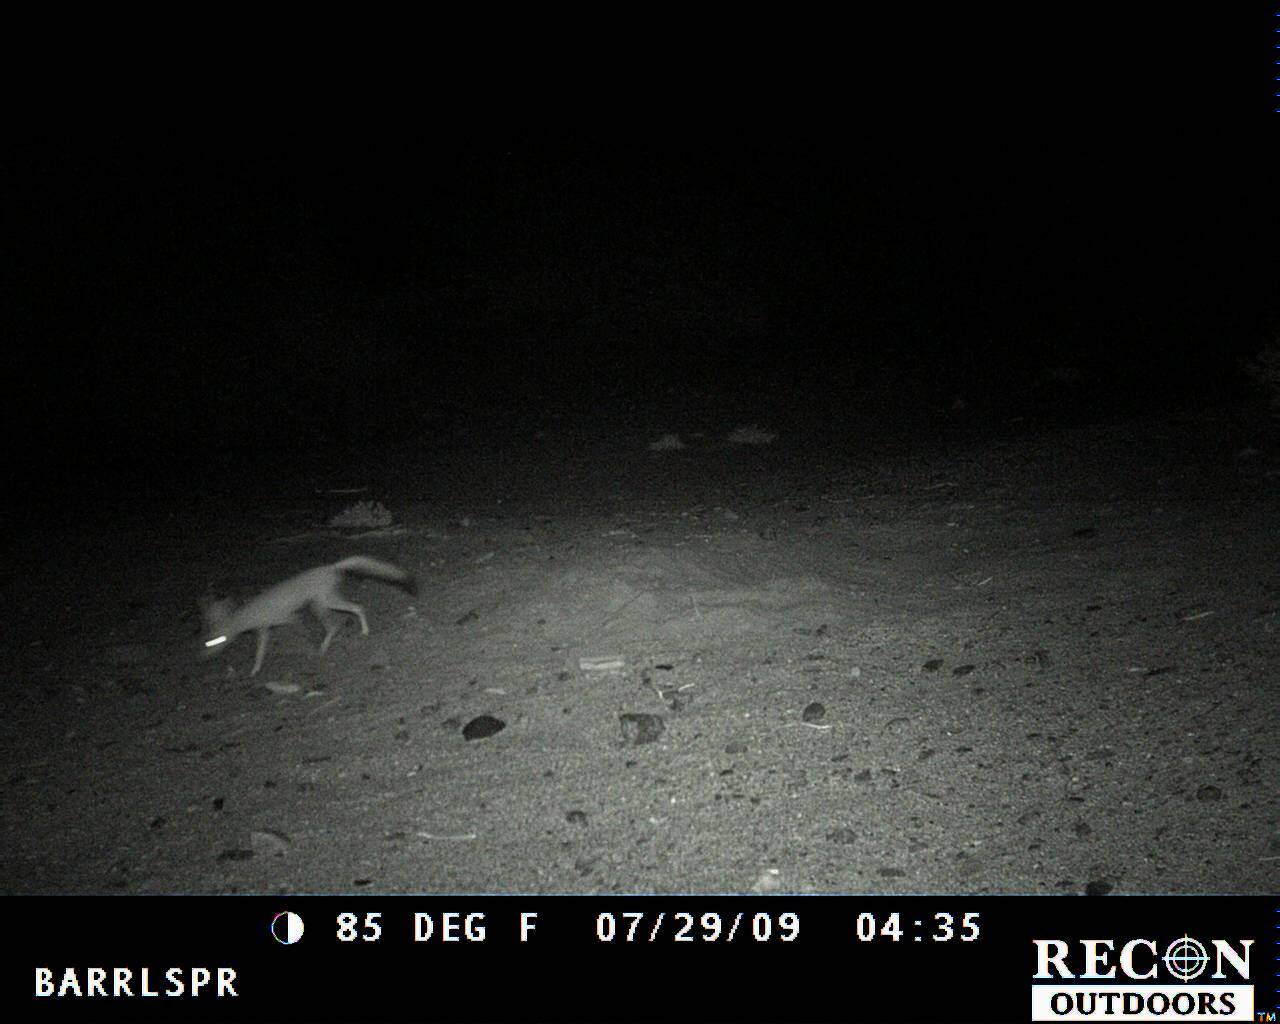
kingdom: Animalia
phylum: Chordata
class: Mammalia
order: Carnivora
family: Canidae
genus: Vulpes
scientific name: Vulpes macrotis
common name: Kit fox
